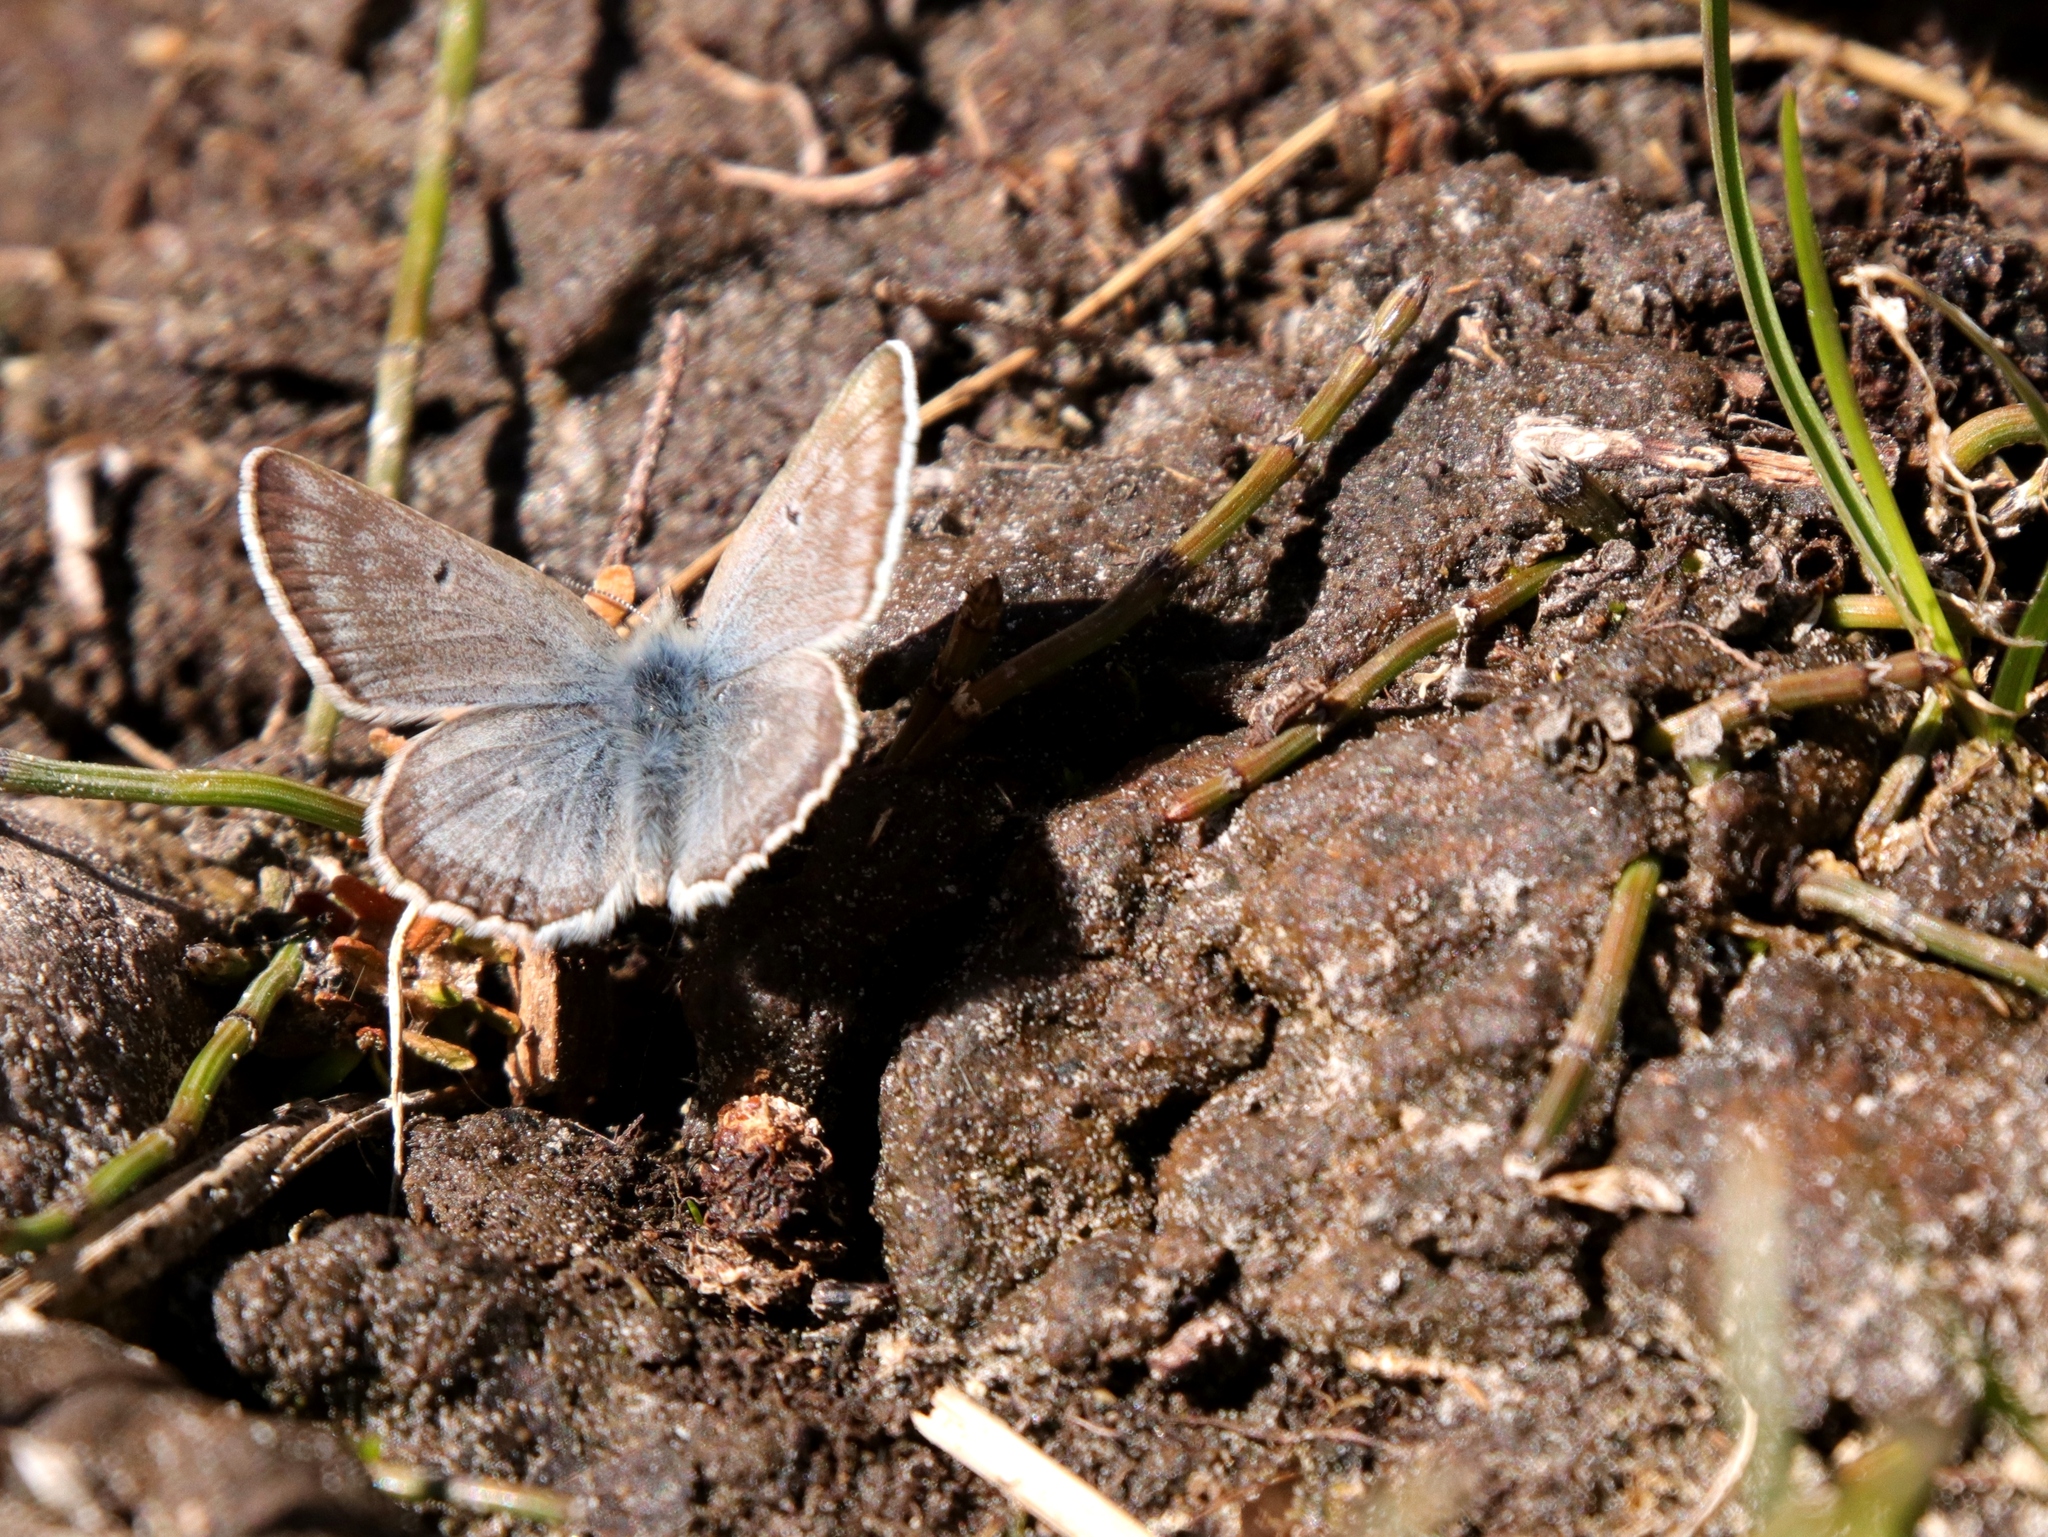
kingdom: Animalia
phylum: Arthropoda
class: Insecta
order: Lepidoptera
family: Lycaenidae
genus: Agriades
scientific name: Agriades glandon
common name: Glandon blue
